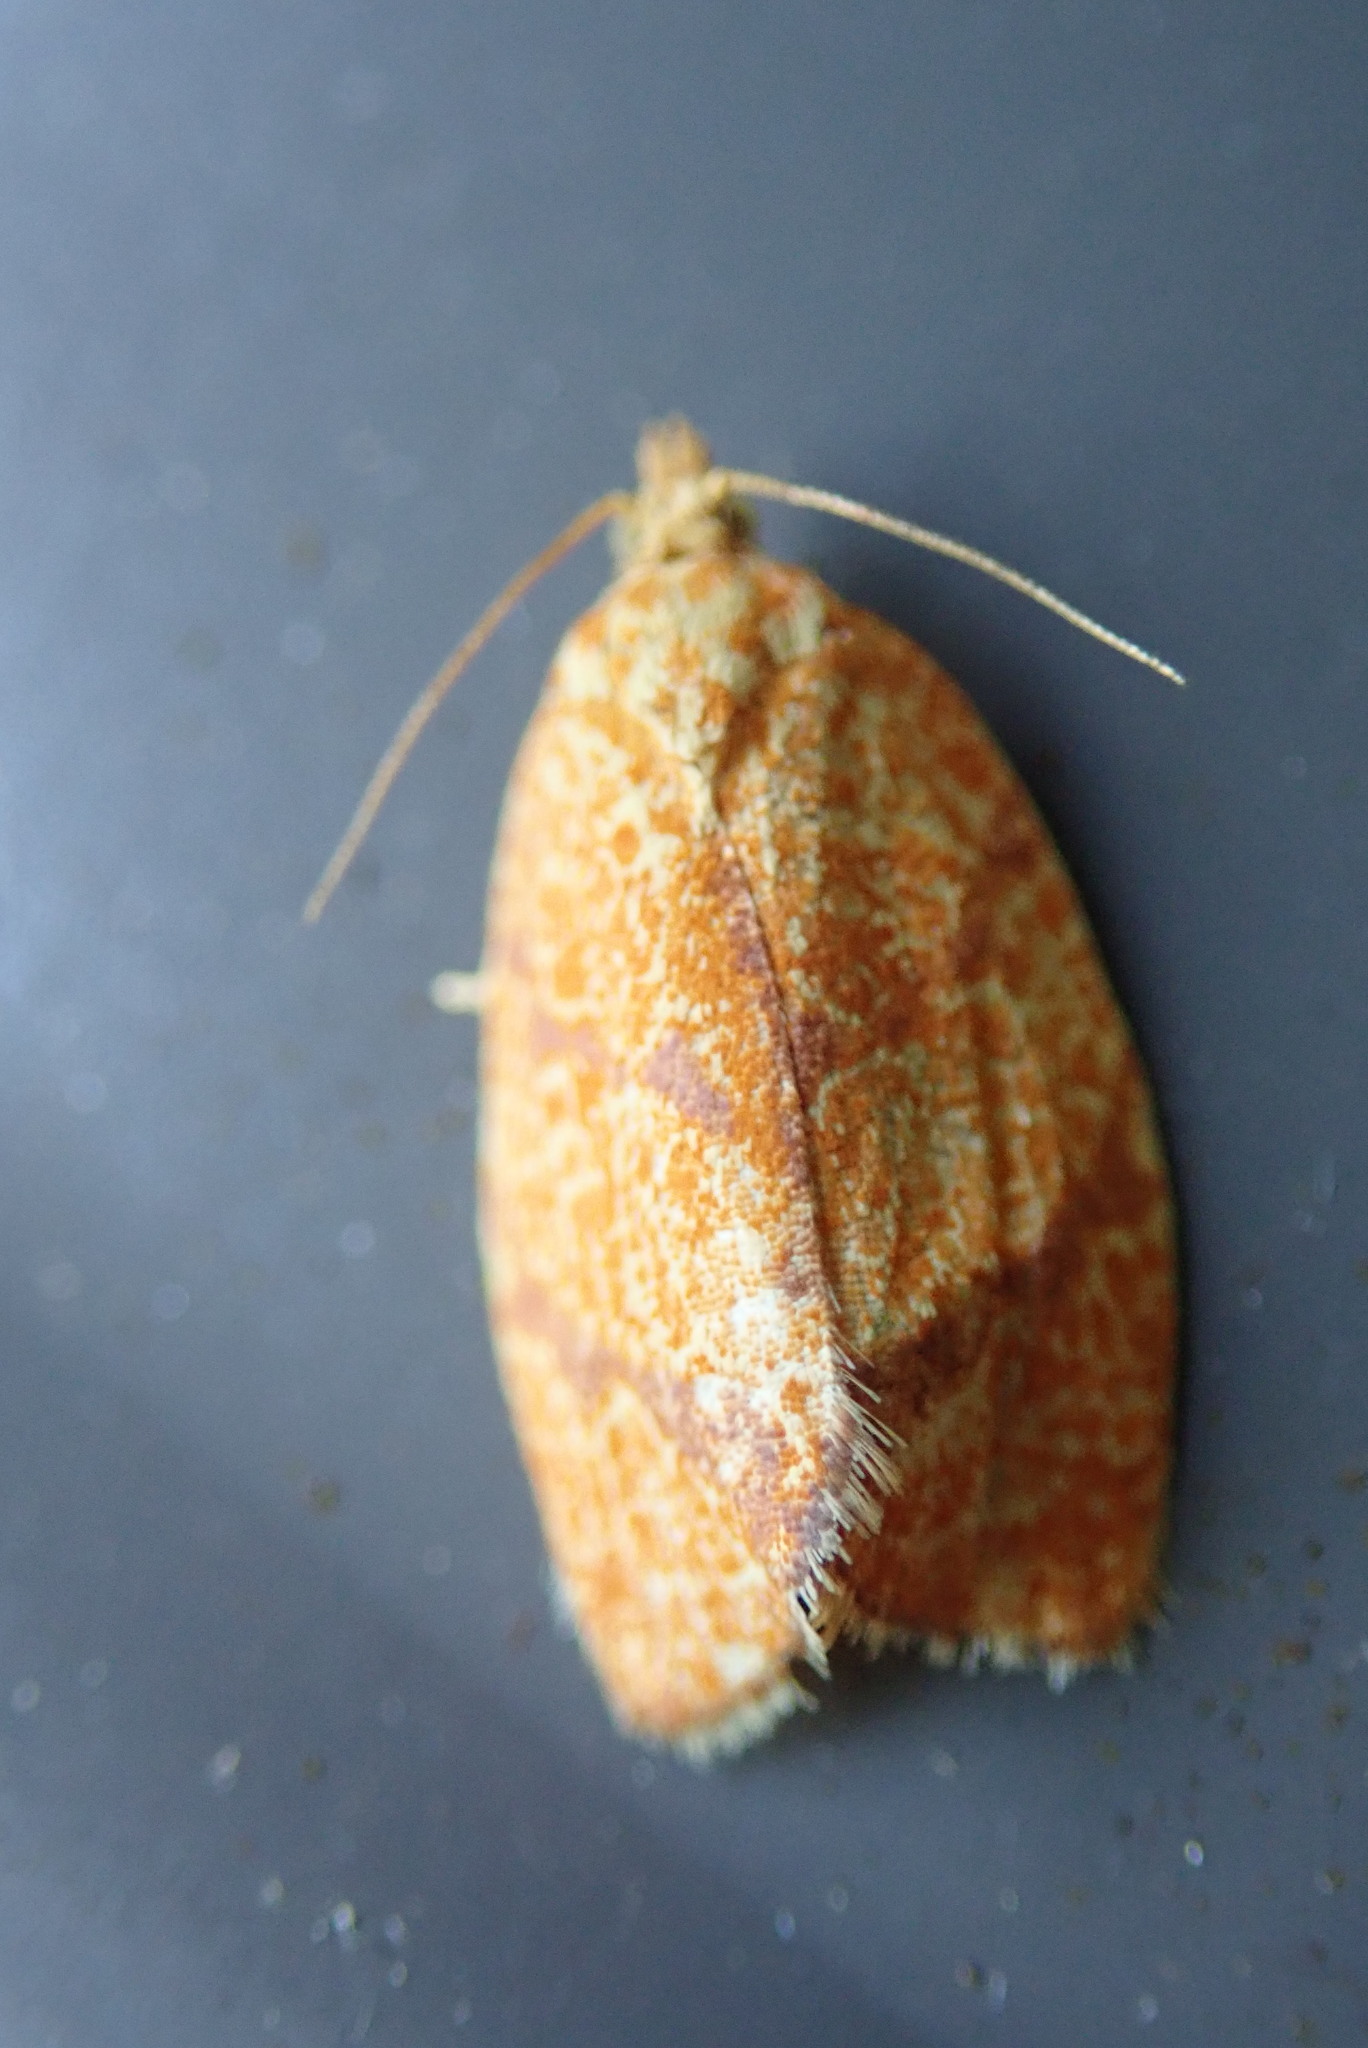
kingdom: Animalia
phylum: Arthropoda
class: Insecta
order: Lepidoptera
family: Tortricidae
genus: Argyrotaenia
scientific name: Argyrotaenia quadrifasciana
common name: Four-lined leafroller moth
